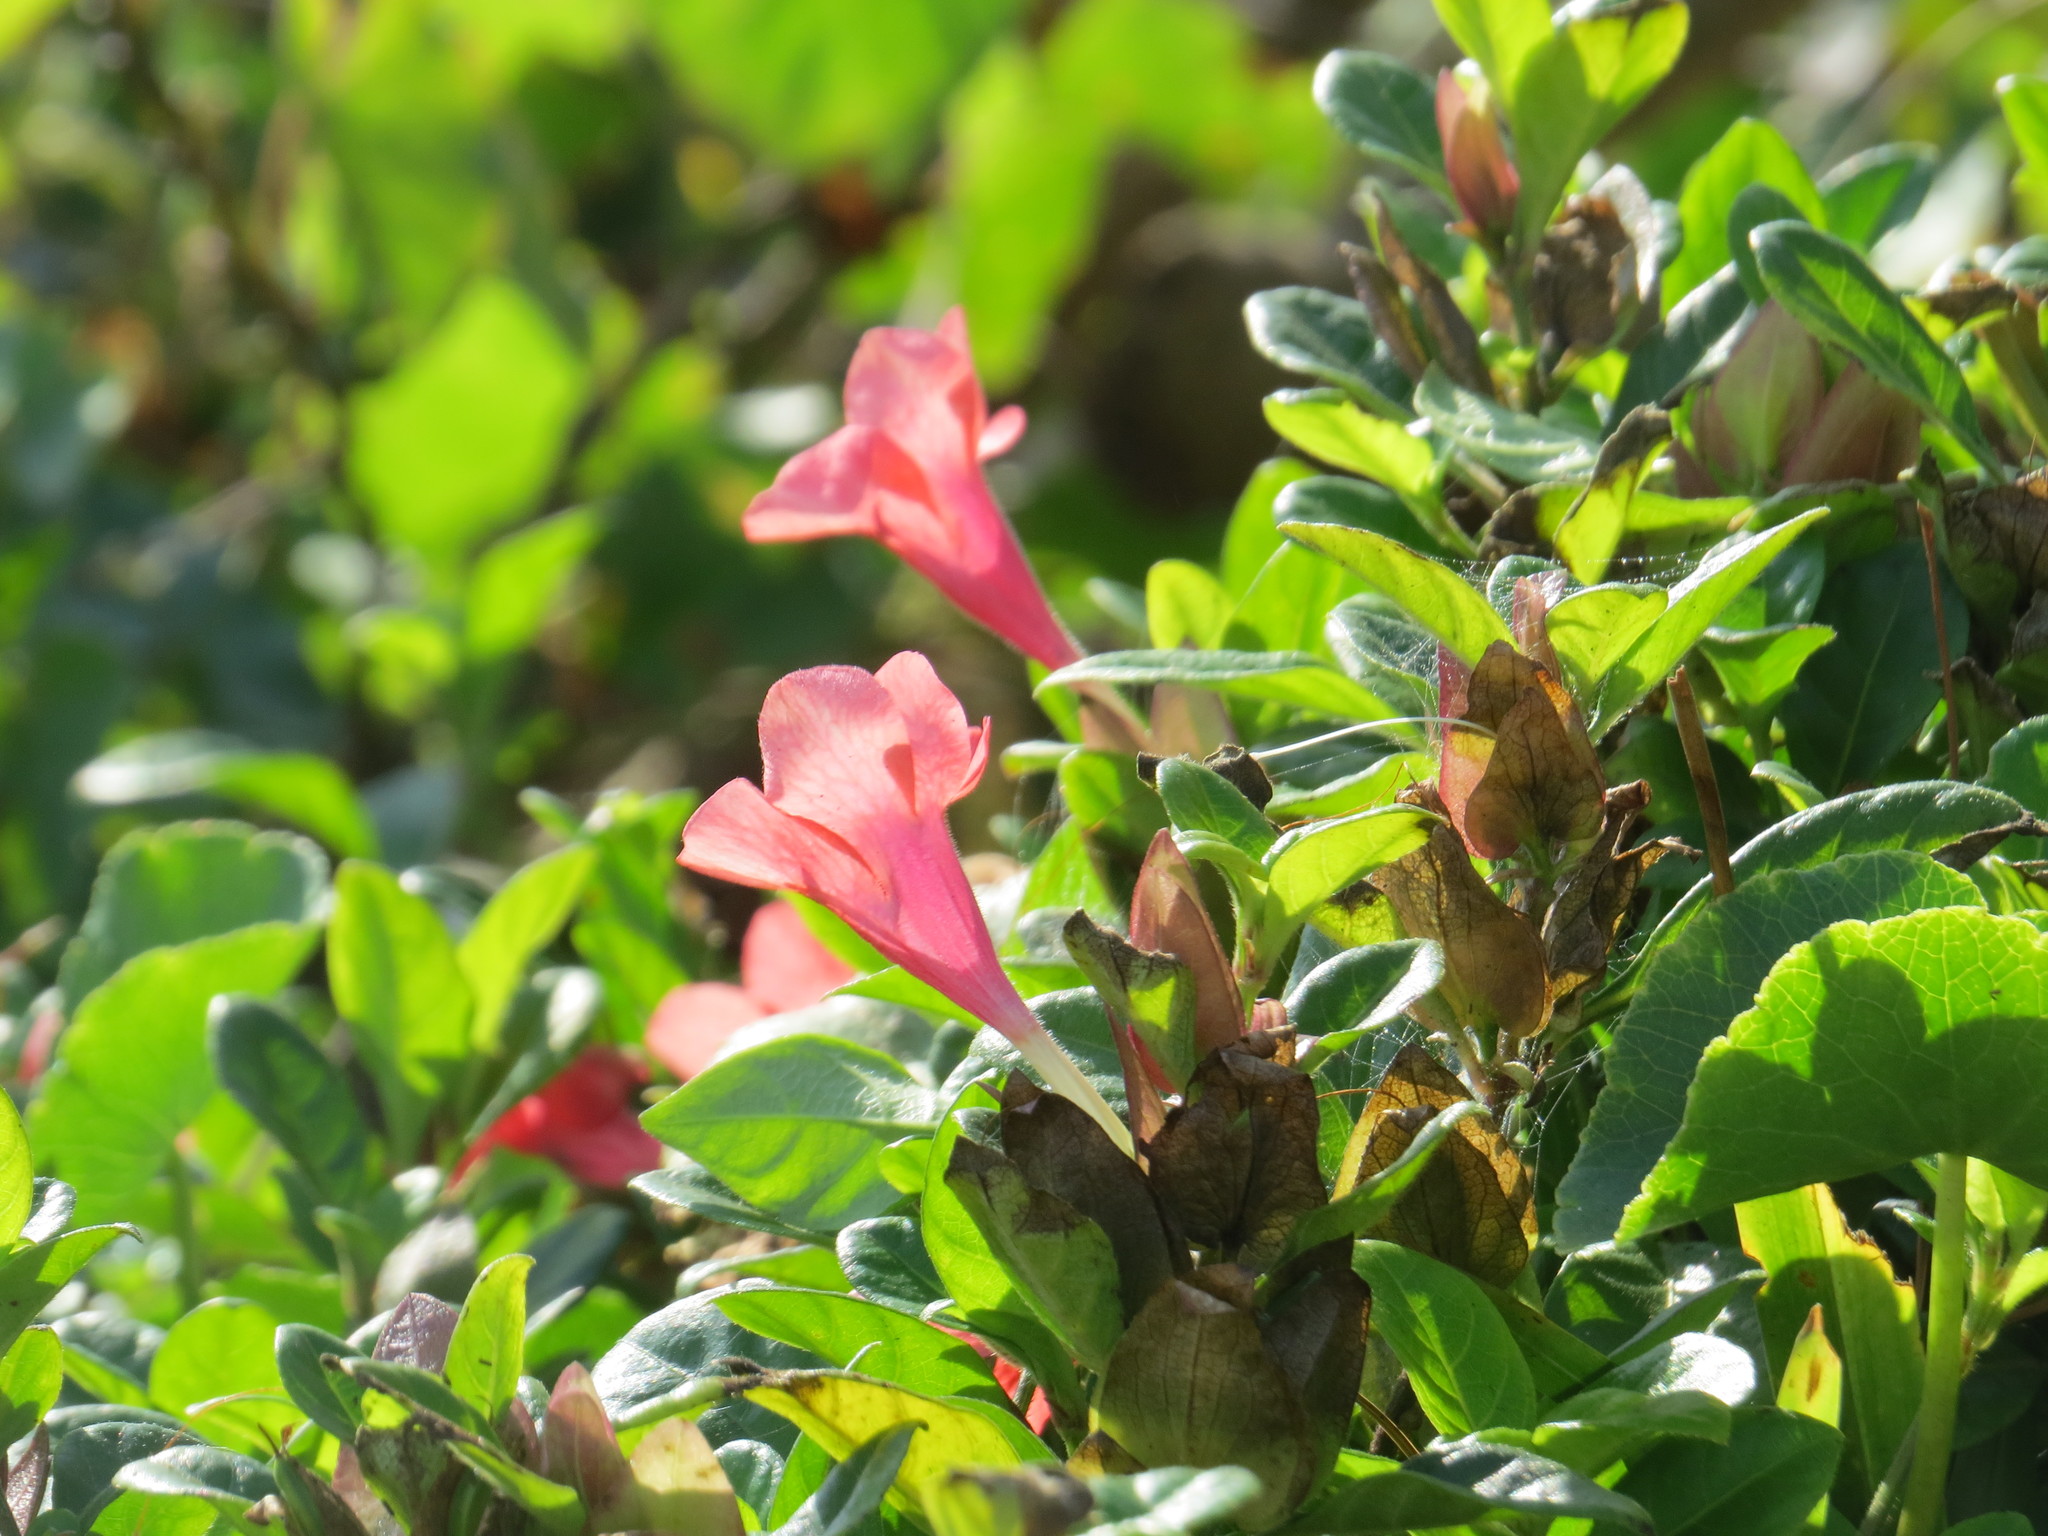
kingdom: Plantae
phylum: Tracheophyta
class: Magnoliopsida
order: Lamiales
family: Acanthaceae
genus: Barleria
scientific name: Barleria repens
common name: Pink-ruellia
